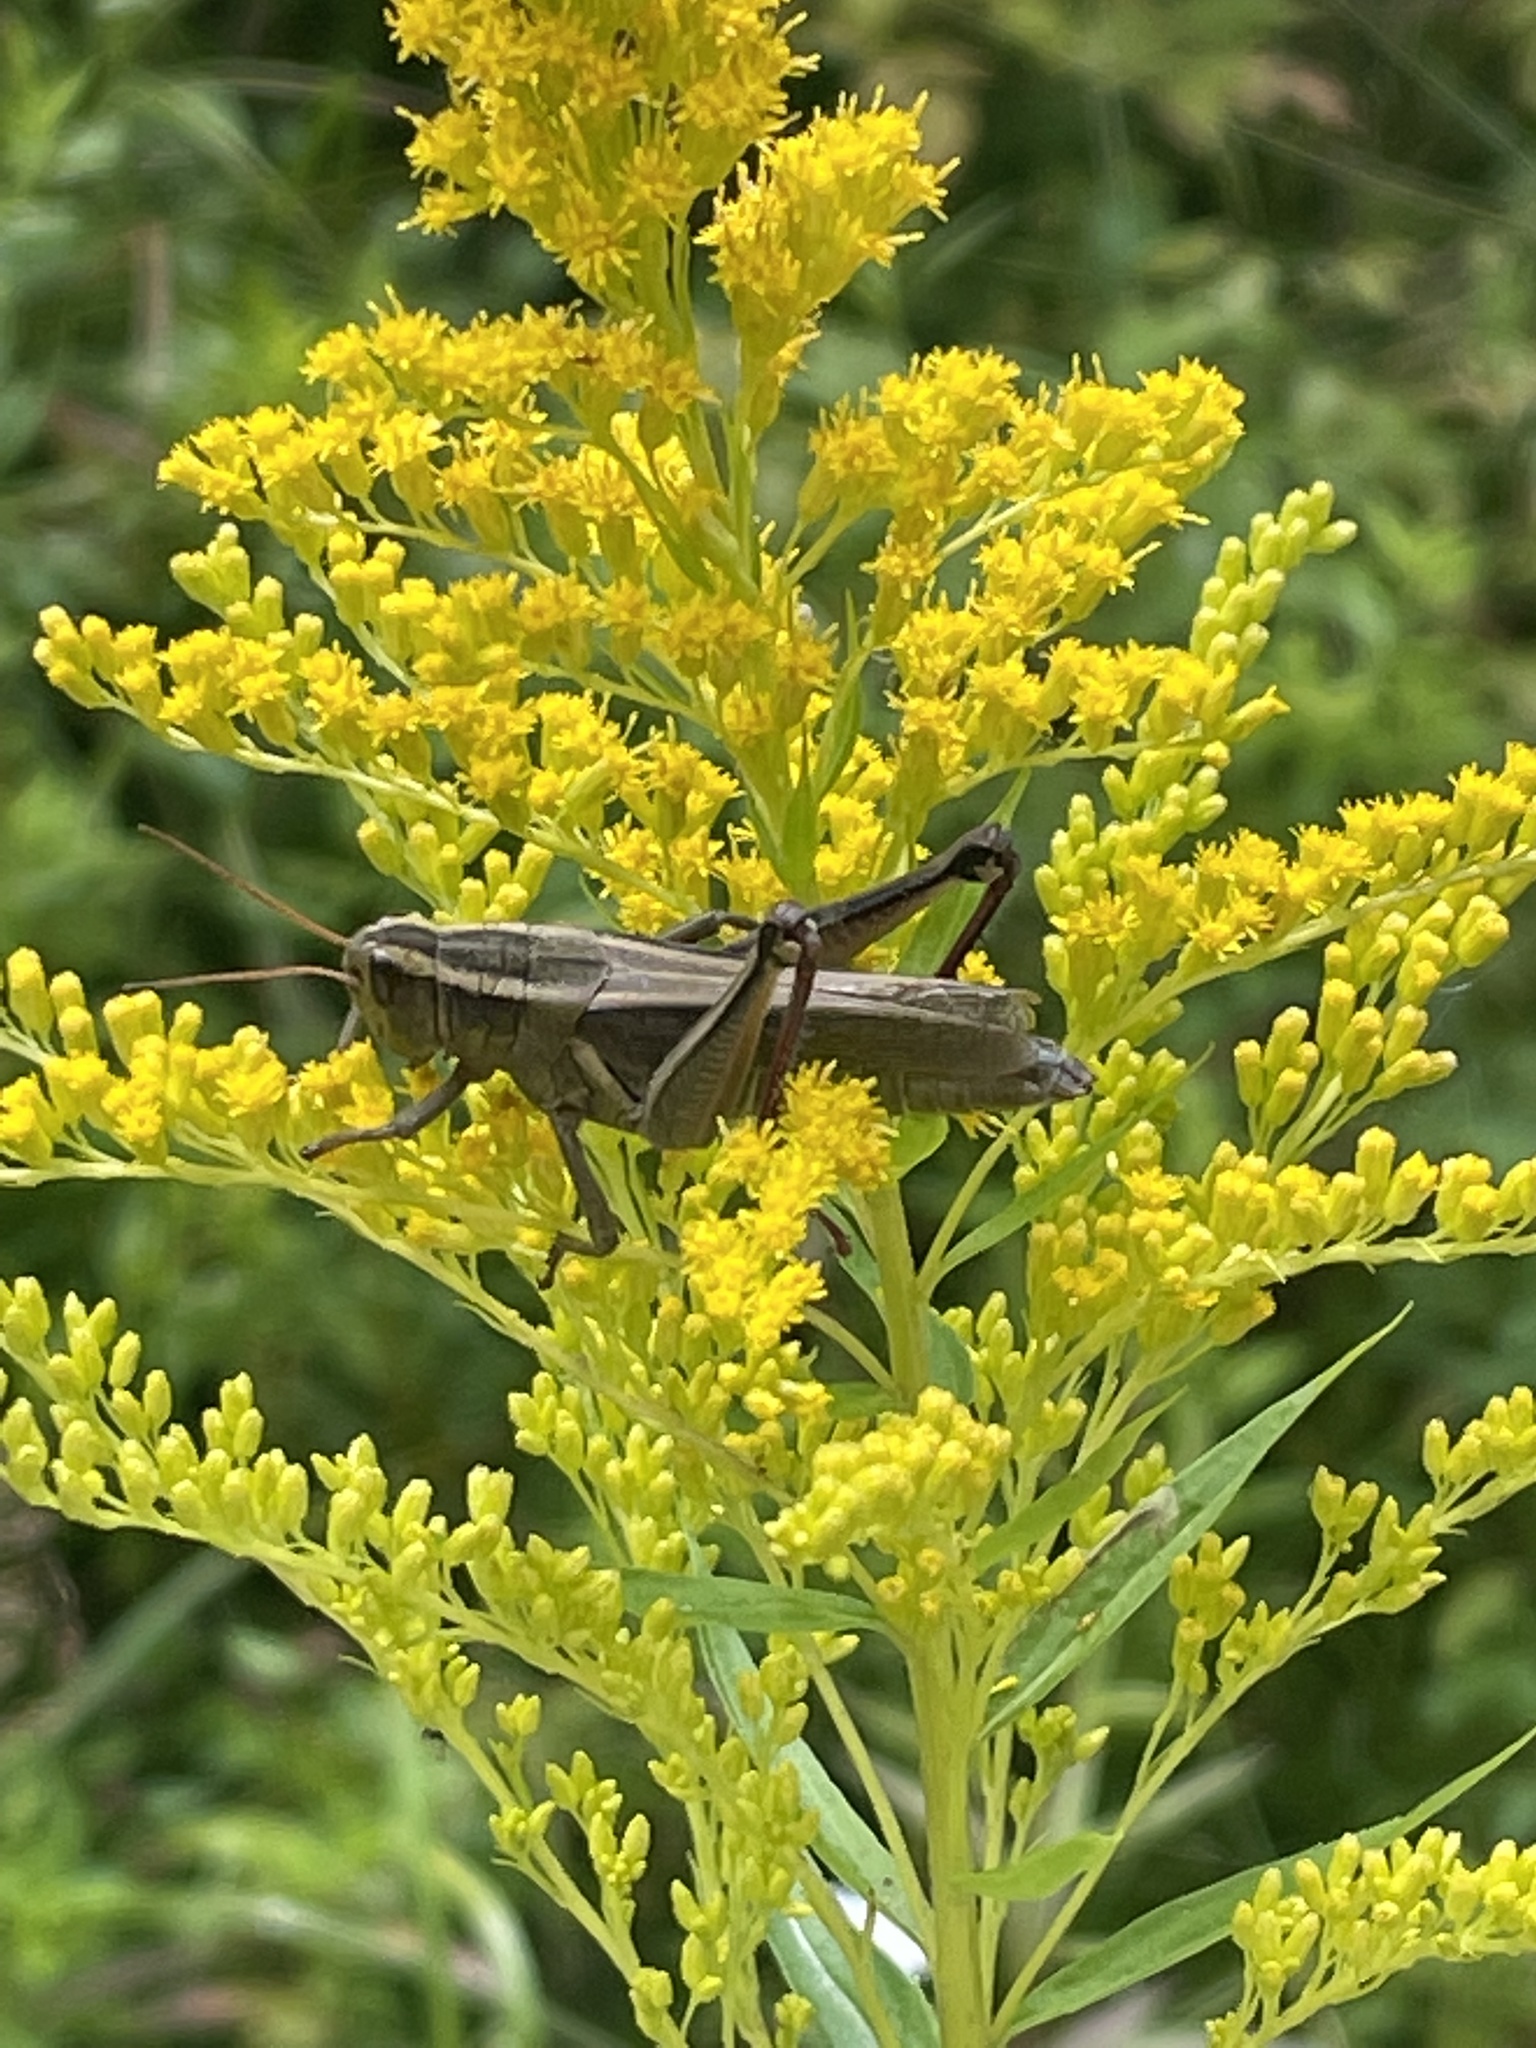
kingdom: Animalia
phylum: Arthropoda
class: Insecta
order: Orthoptera
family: Acrididae
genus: Melanoplus
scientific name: Melanoplus bivittatus
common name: Two-striped grasshopper
